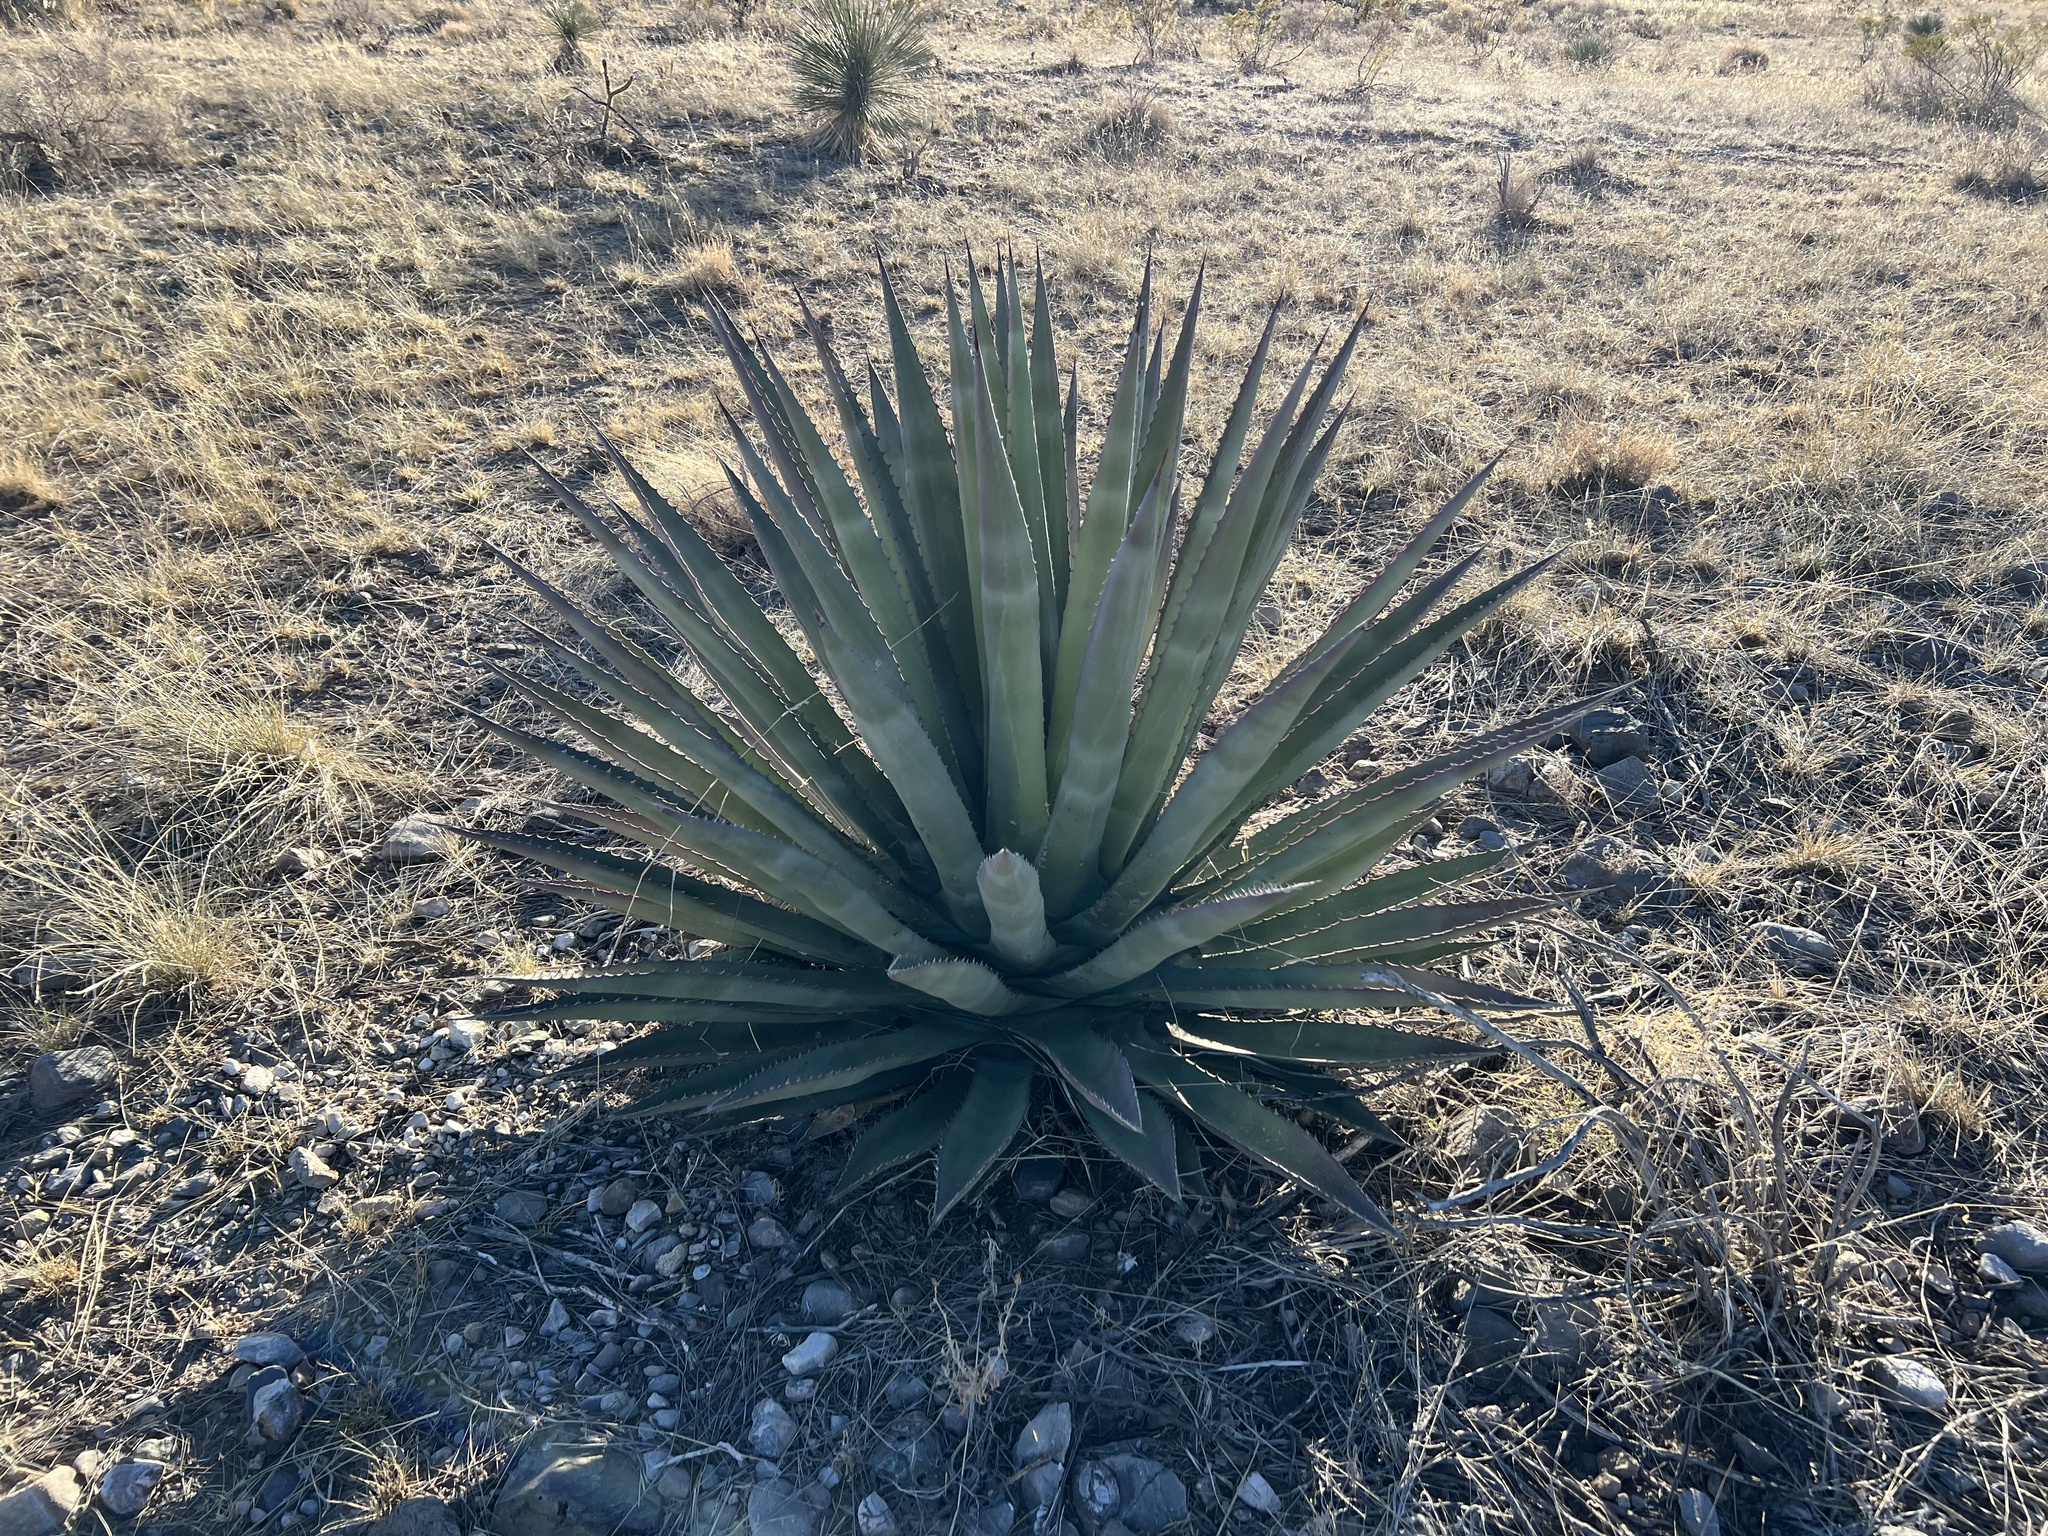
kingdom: Plantae
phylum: Tracheophyta
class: Liliopsida
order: Asparagales
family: Asparagaceae
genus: Agave
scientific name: Agave palmeri
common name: Palmer agave
